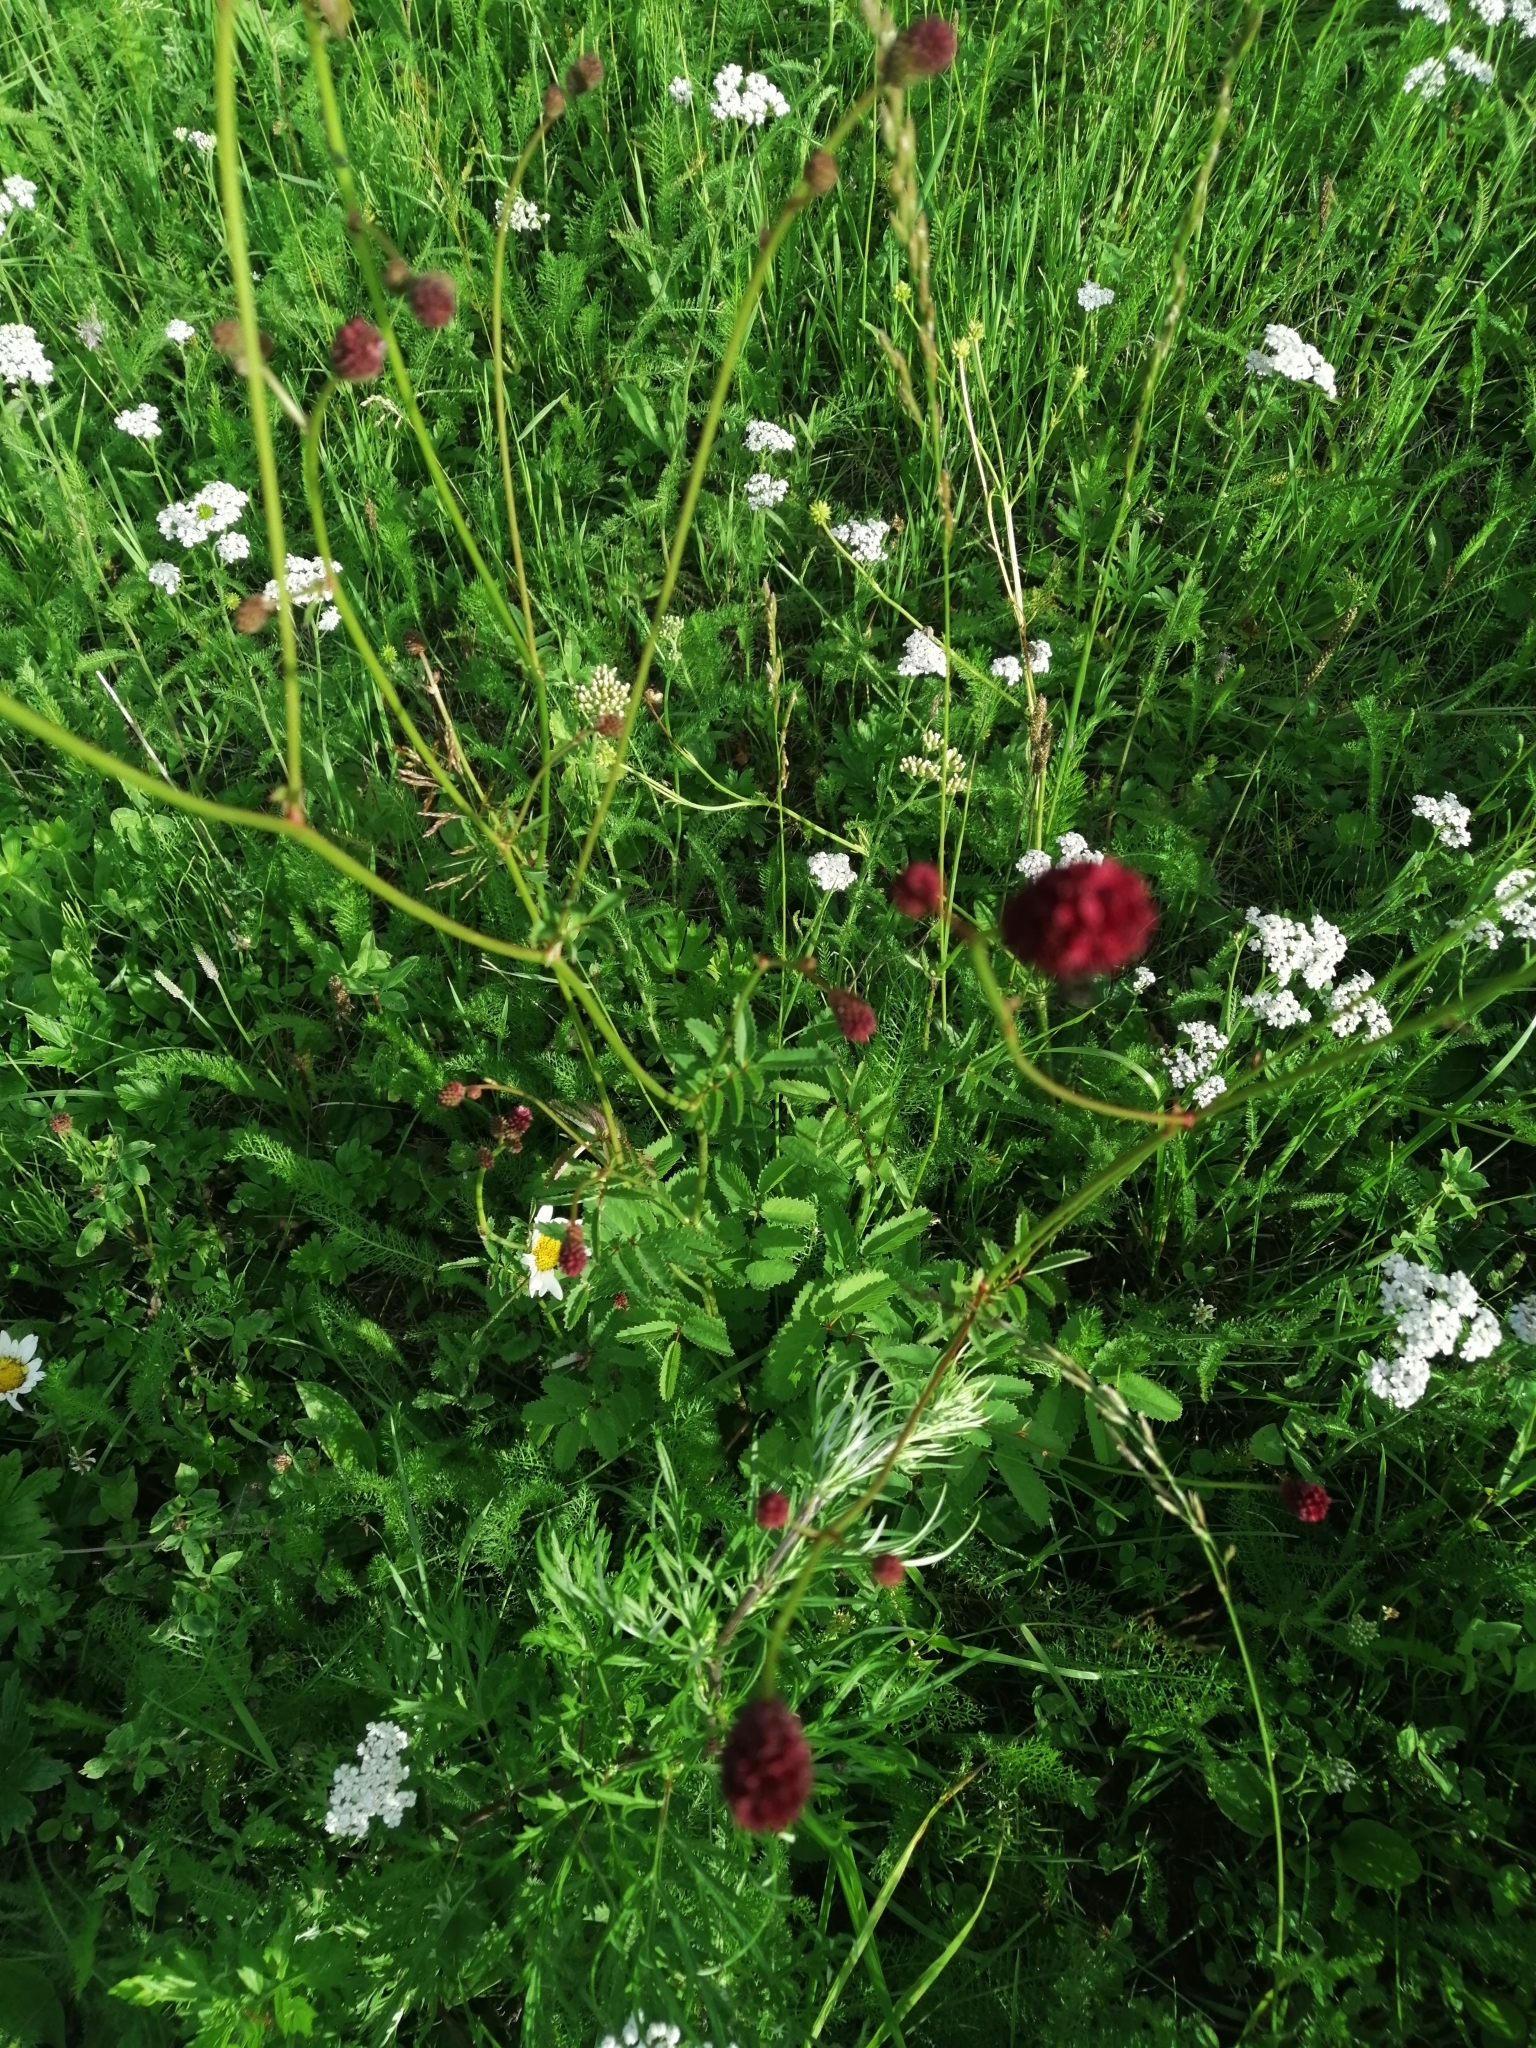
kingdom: Plantae
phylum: Tracheophyta
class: Magnoliopsida
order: Rosales
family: Rosaceae
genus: Sanguisorba
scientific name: Sanguisorba officinalis
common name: Great burnet
